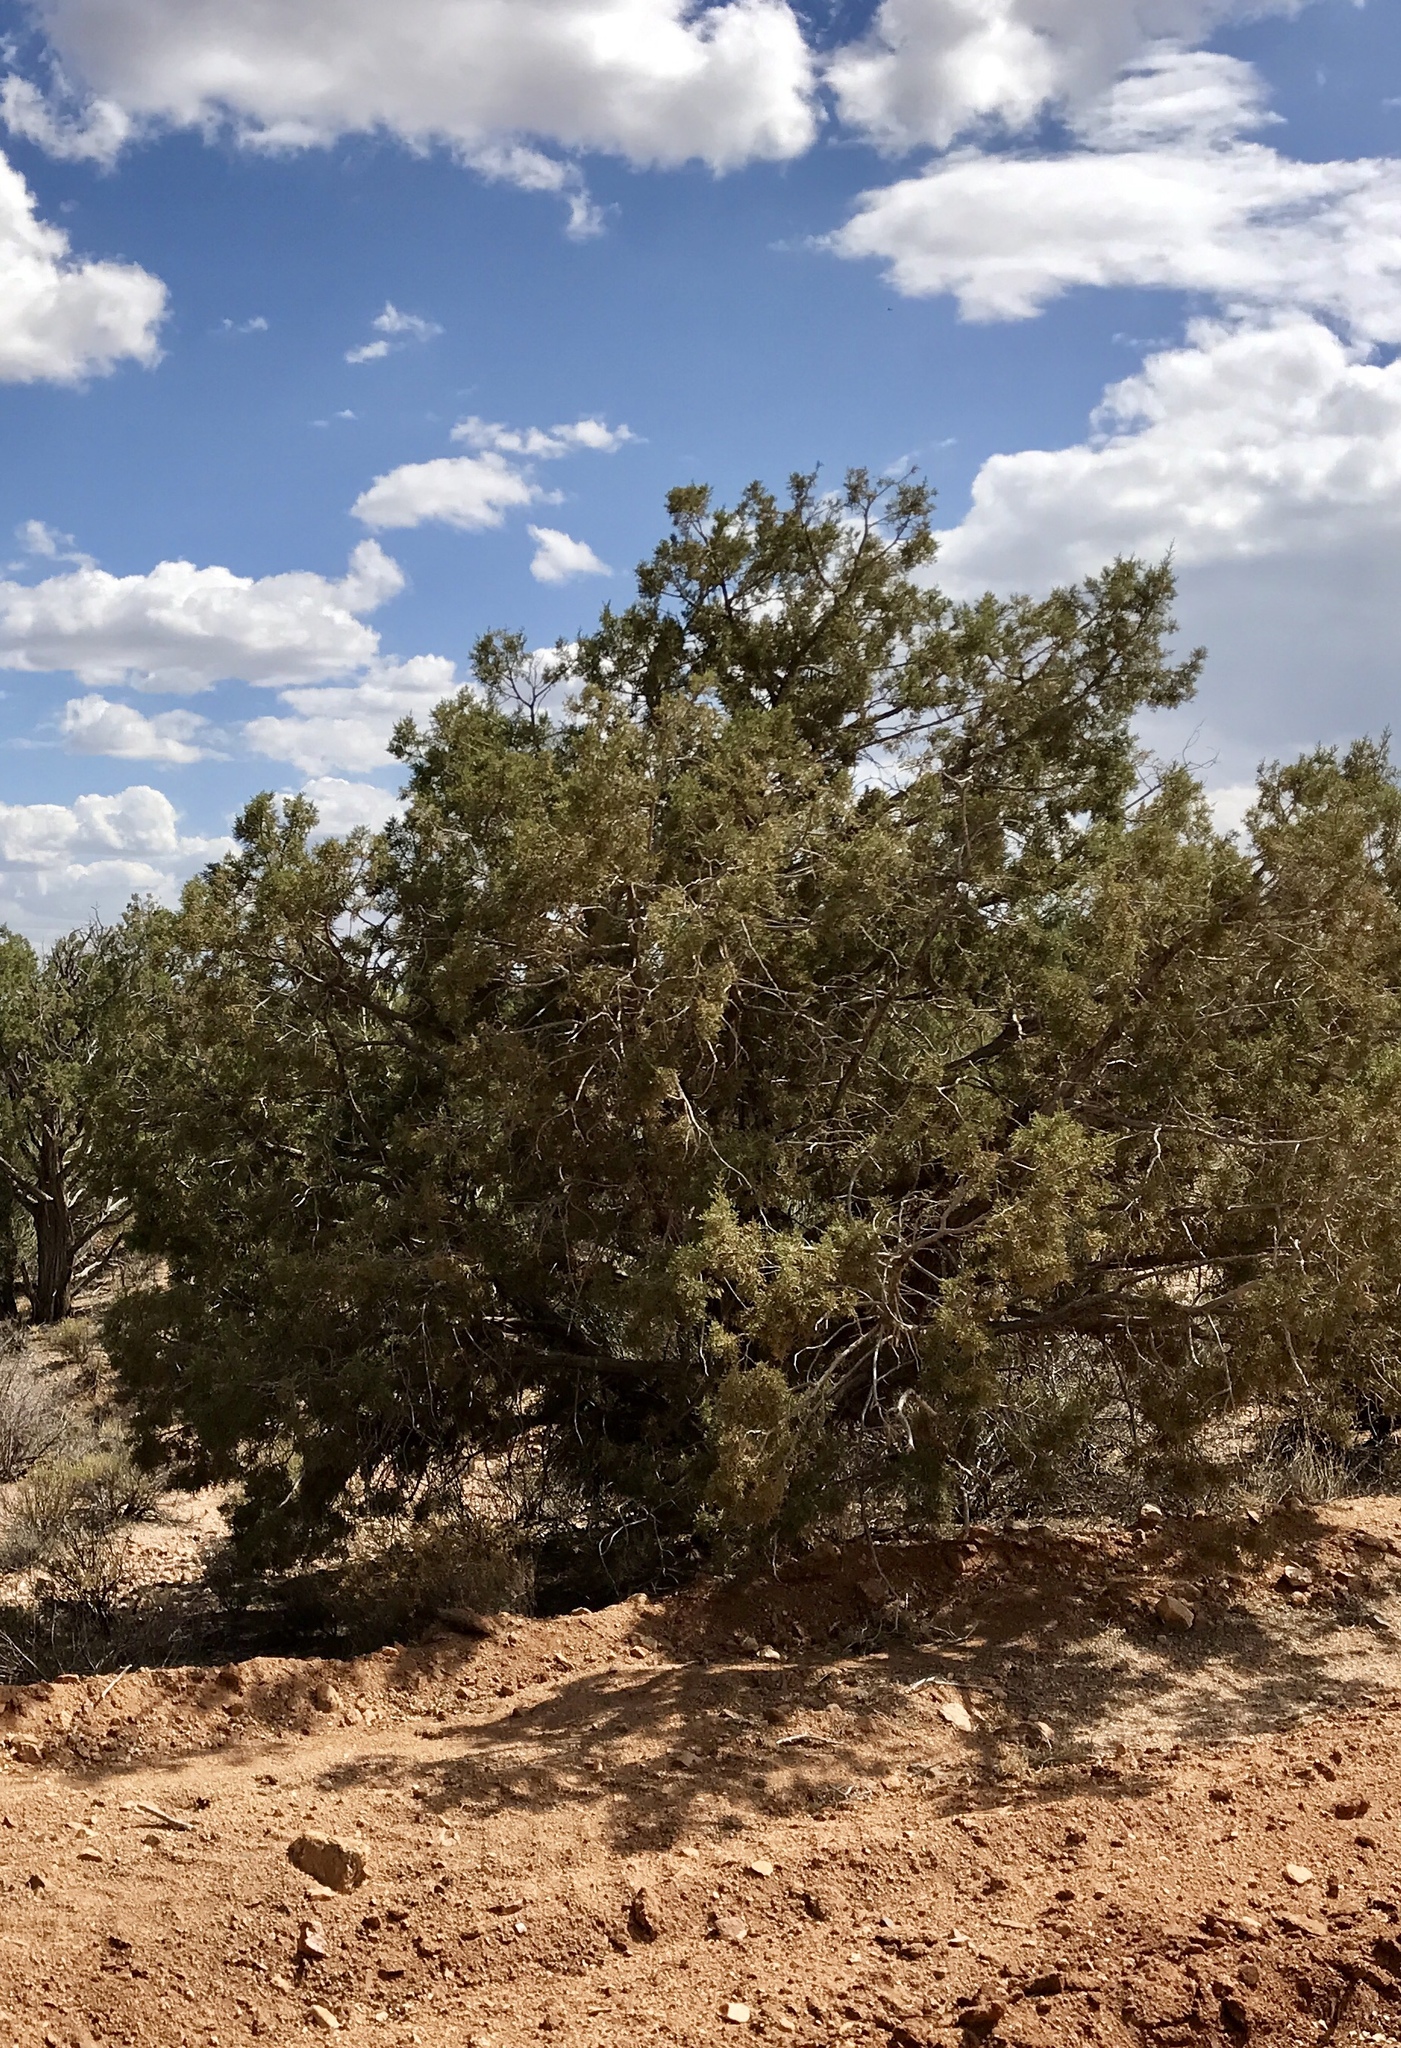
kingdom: Plantae
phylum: Tracheophyta
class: Pinopsida
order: Pinales
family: Cupressaceae
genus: Juniperus
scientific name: Juniperus osteosperma
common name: Utah juniper
